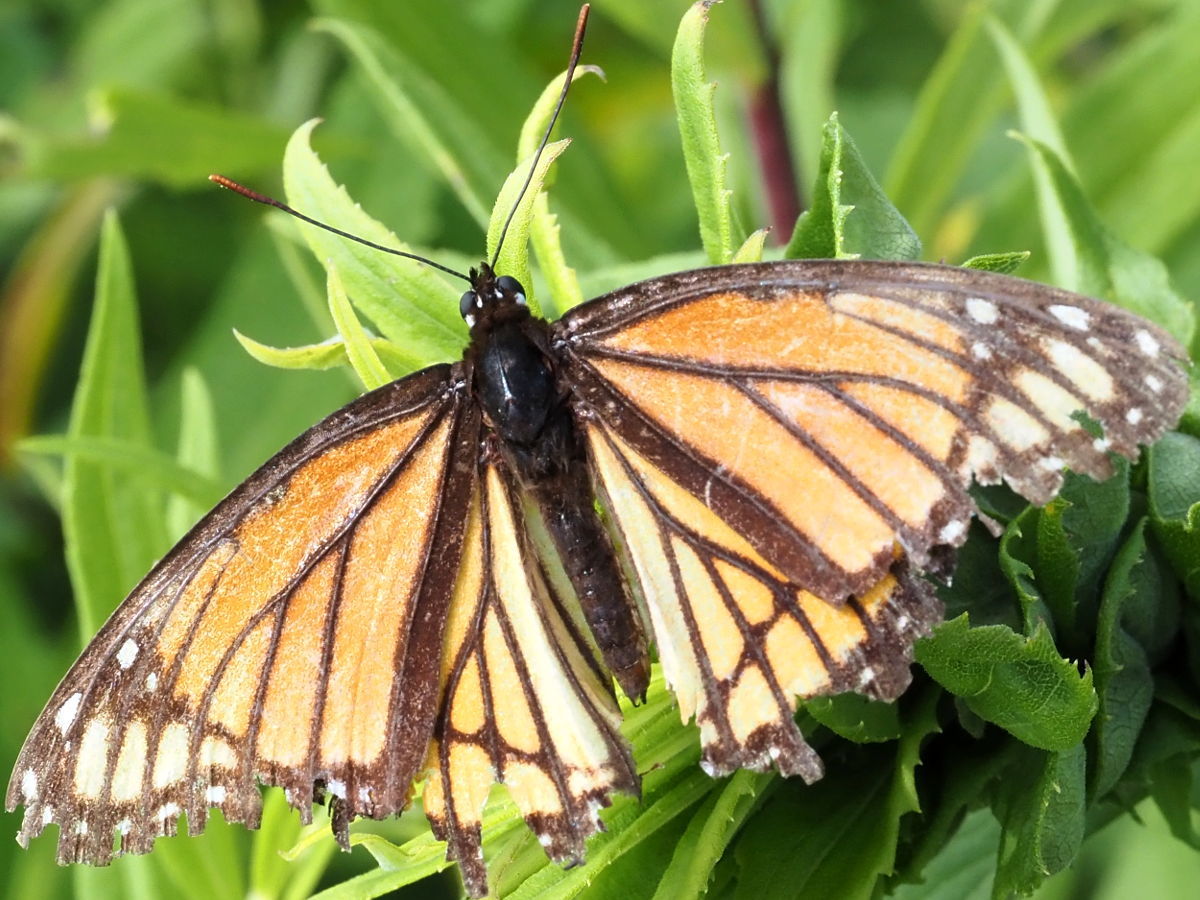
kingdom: Animalia
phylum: Arthropoda
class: Insecta
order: Lepidoptera
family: Nymphalidae
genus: Limenitis
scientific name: Limenitis archippus
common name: Viceroy
